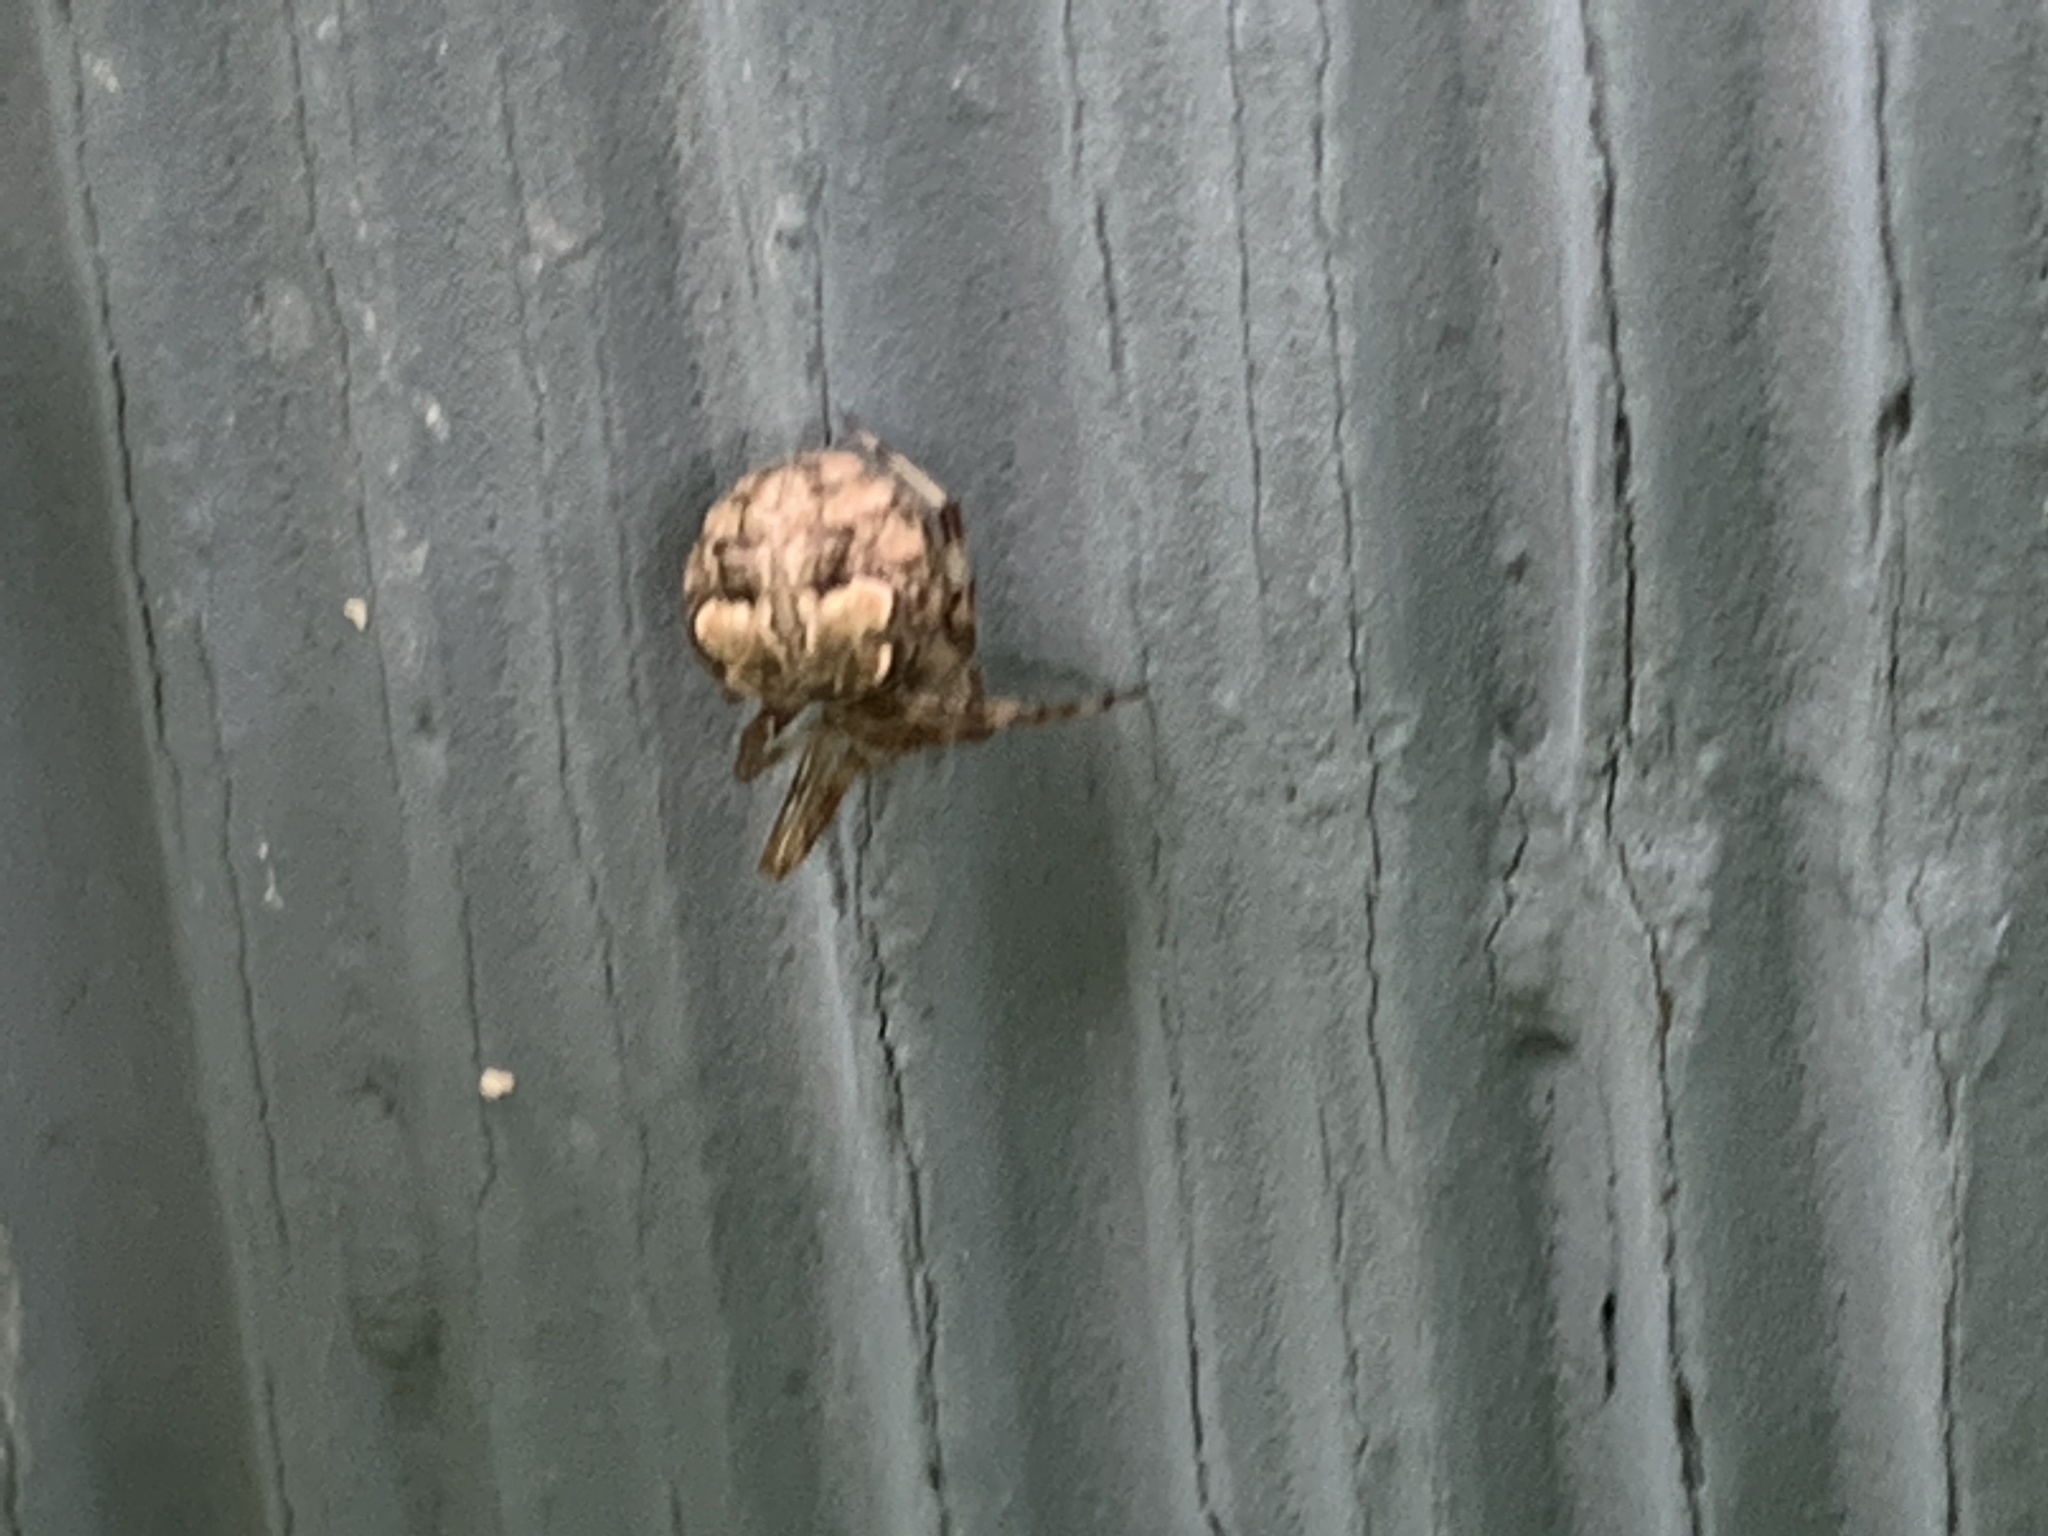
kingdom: Animalia
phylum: Arthropoda
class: Arachnida
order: Araneae
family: Araneidae
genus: Araneus
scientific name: Araneus pegnia
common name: Orb weavers
